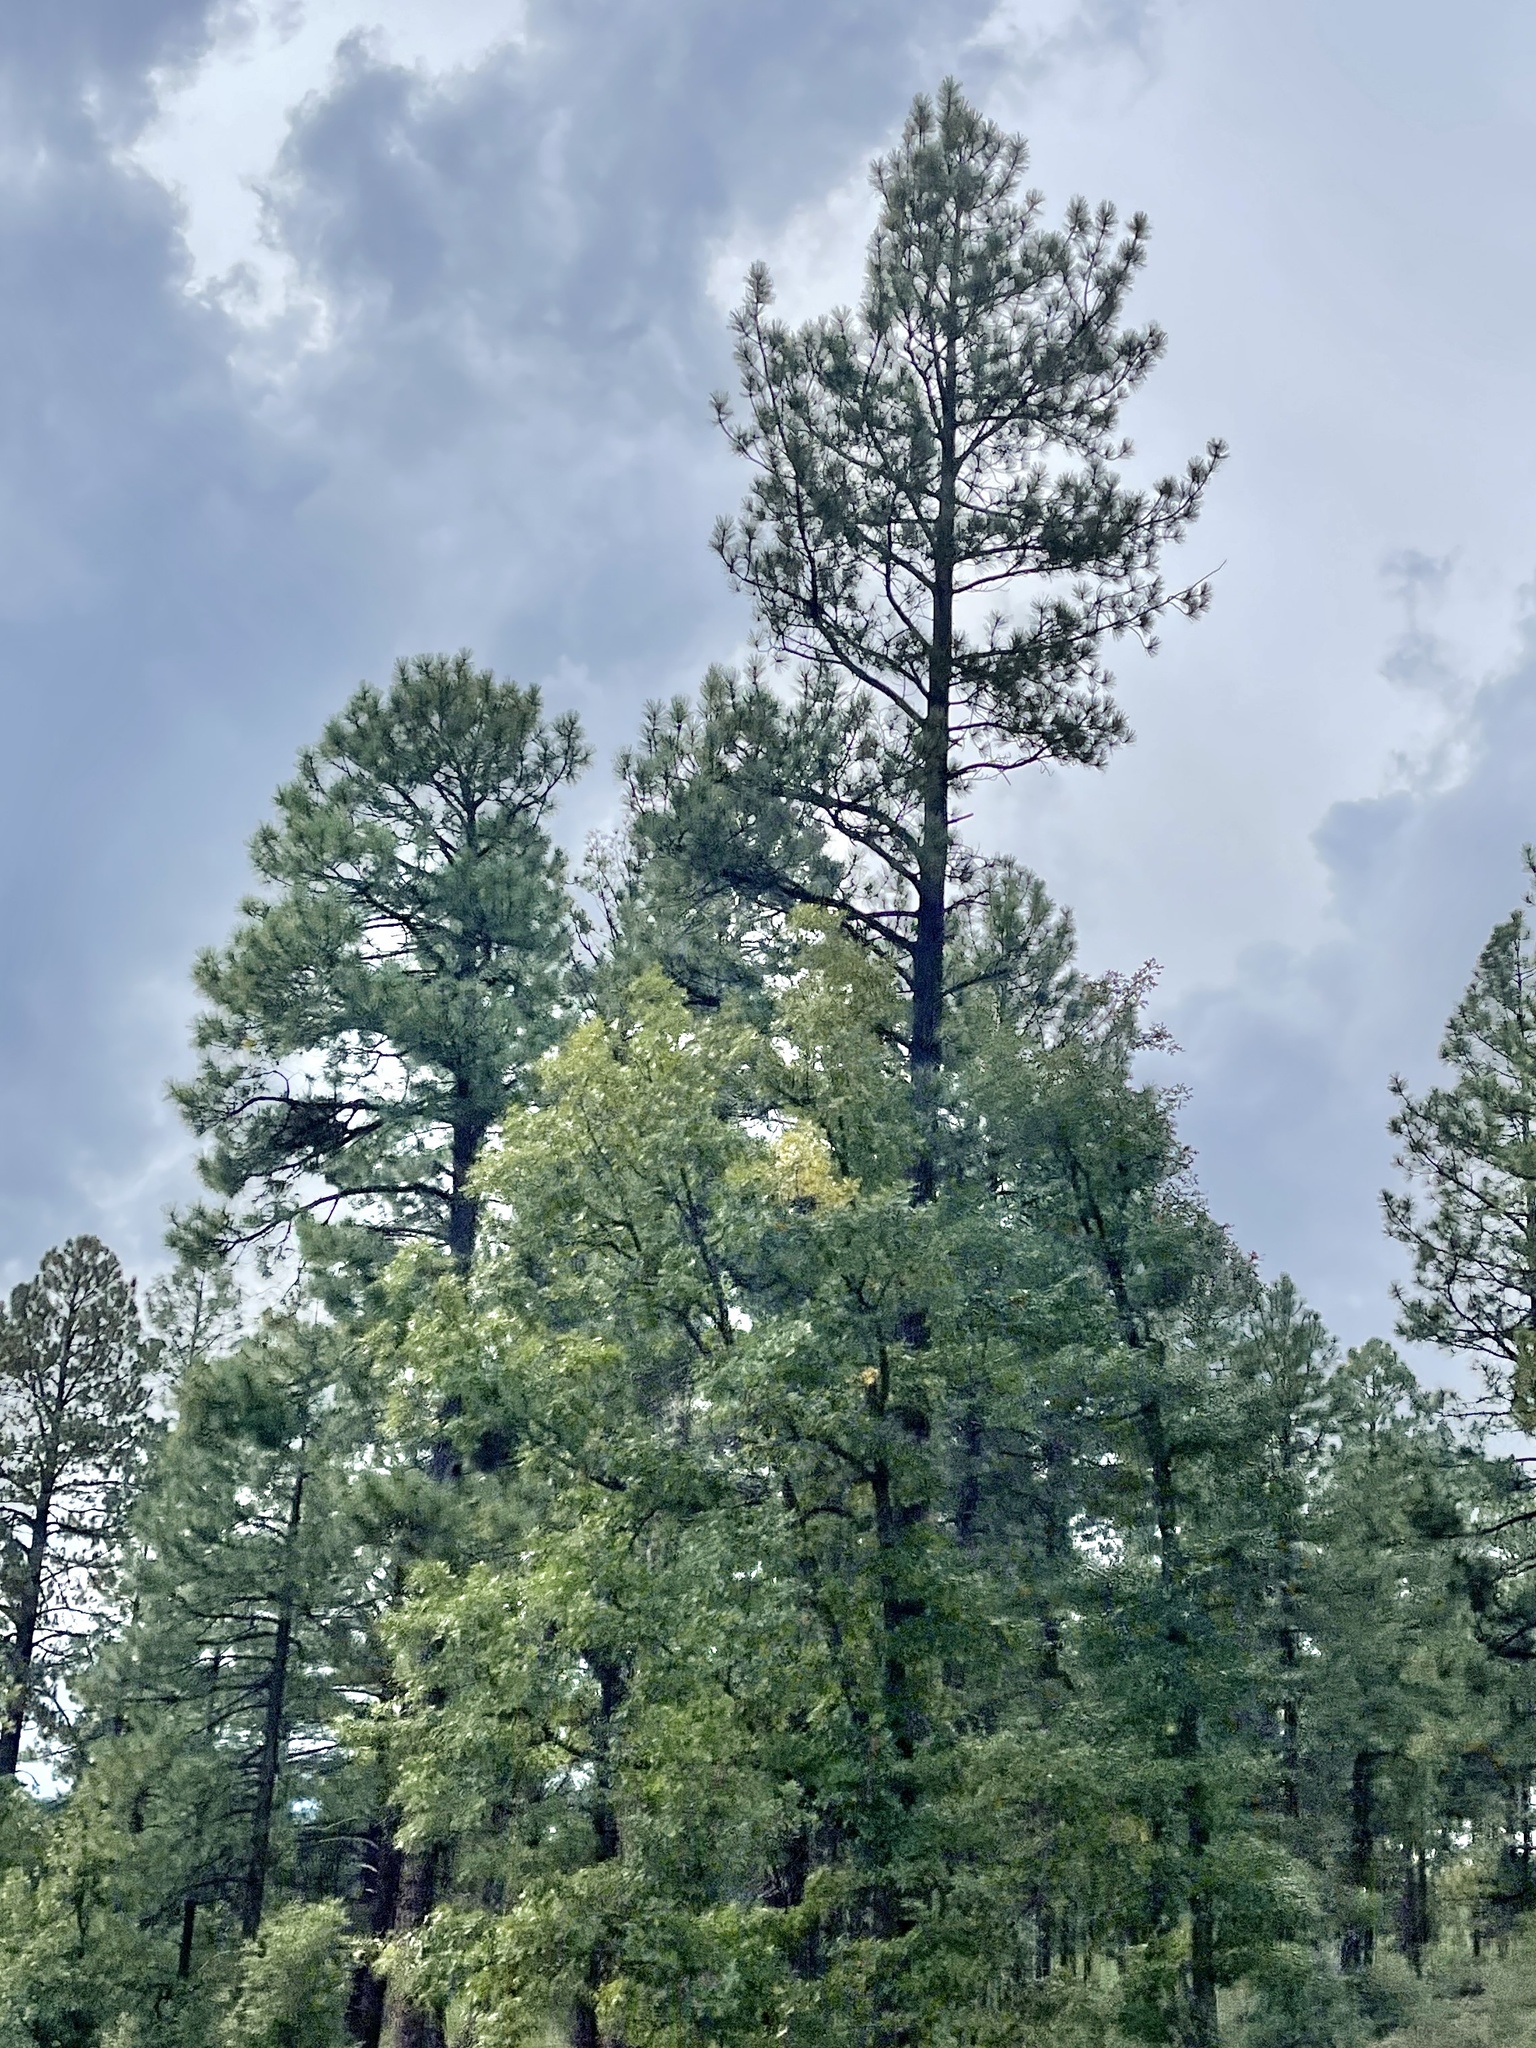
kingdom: Plantae
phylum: Tracheophyta
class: Pinopsida
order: Pinales
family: Pinaceae
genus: Pinus
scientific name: Pinus ponderosa
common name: Western yellow-pine
